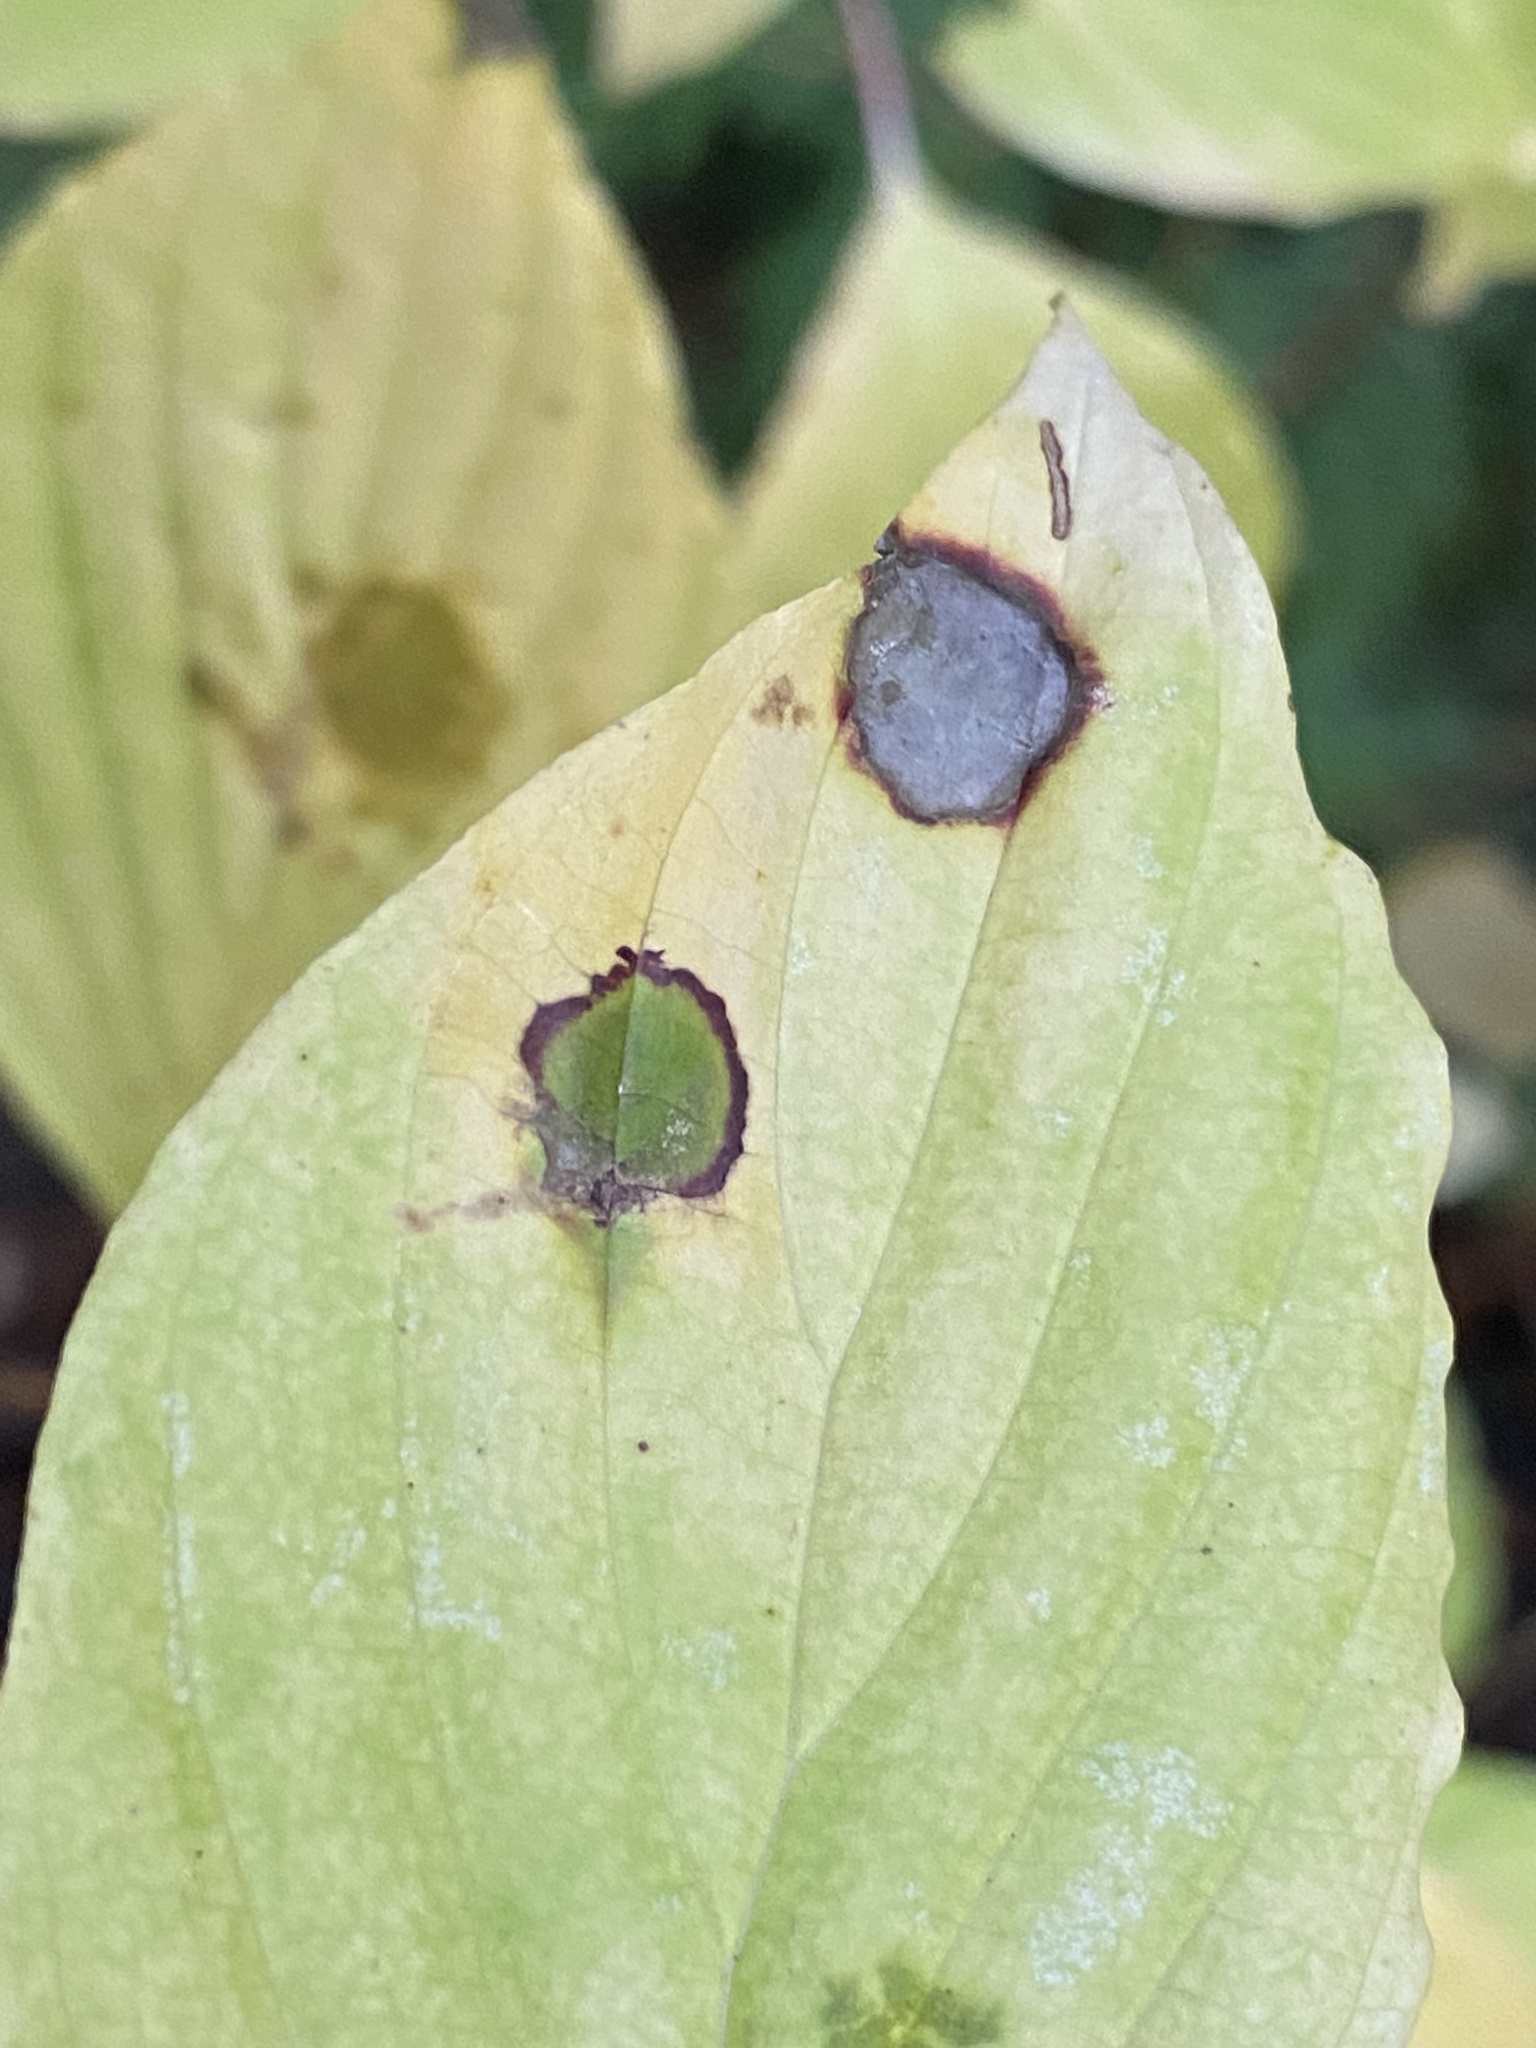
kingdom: Animalia
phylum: Arthropoda
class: Insecta
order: Diptera
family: Cecidomyiidae
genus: Parallelodiplosis
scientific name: Parallelodiplosis subtruncata
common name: Dogwood eyespot gall midge
